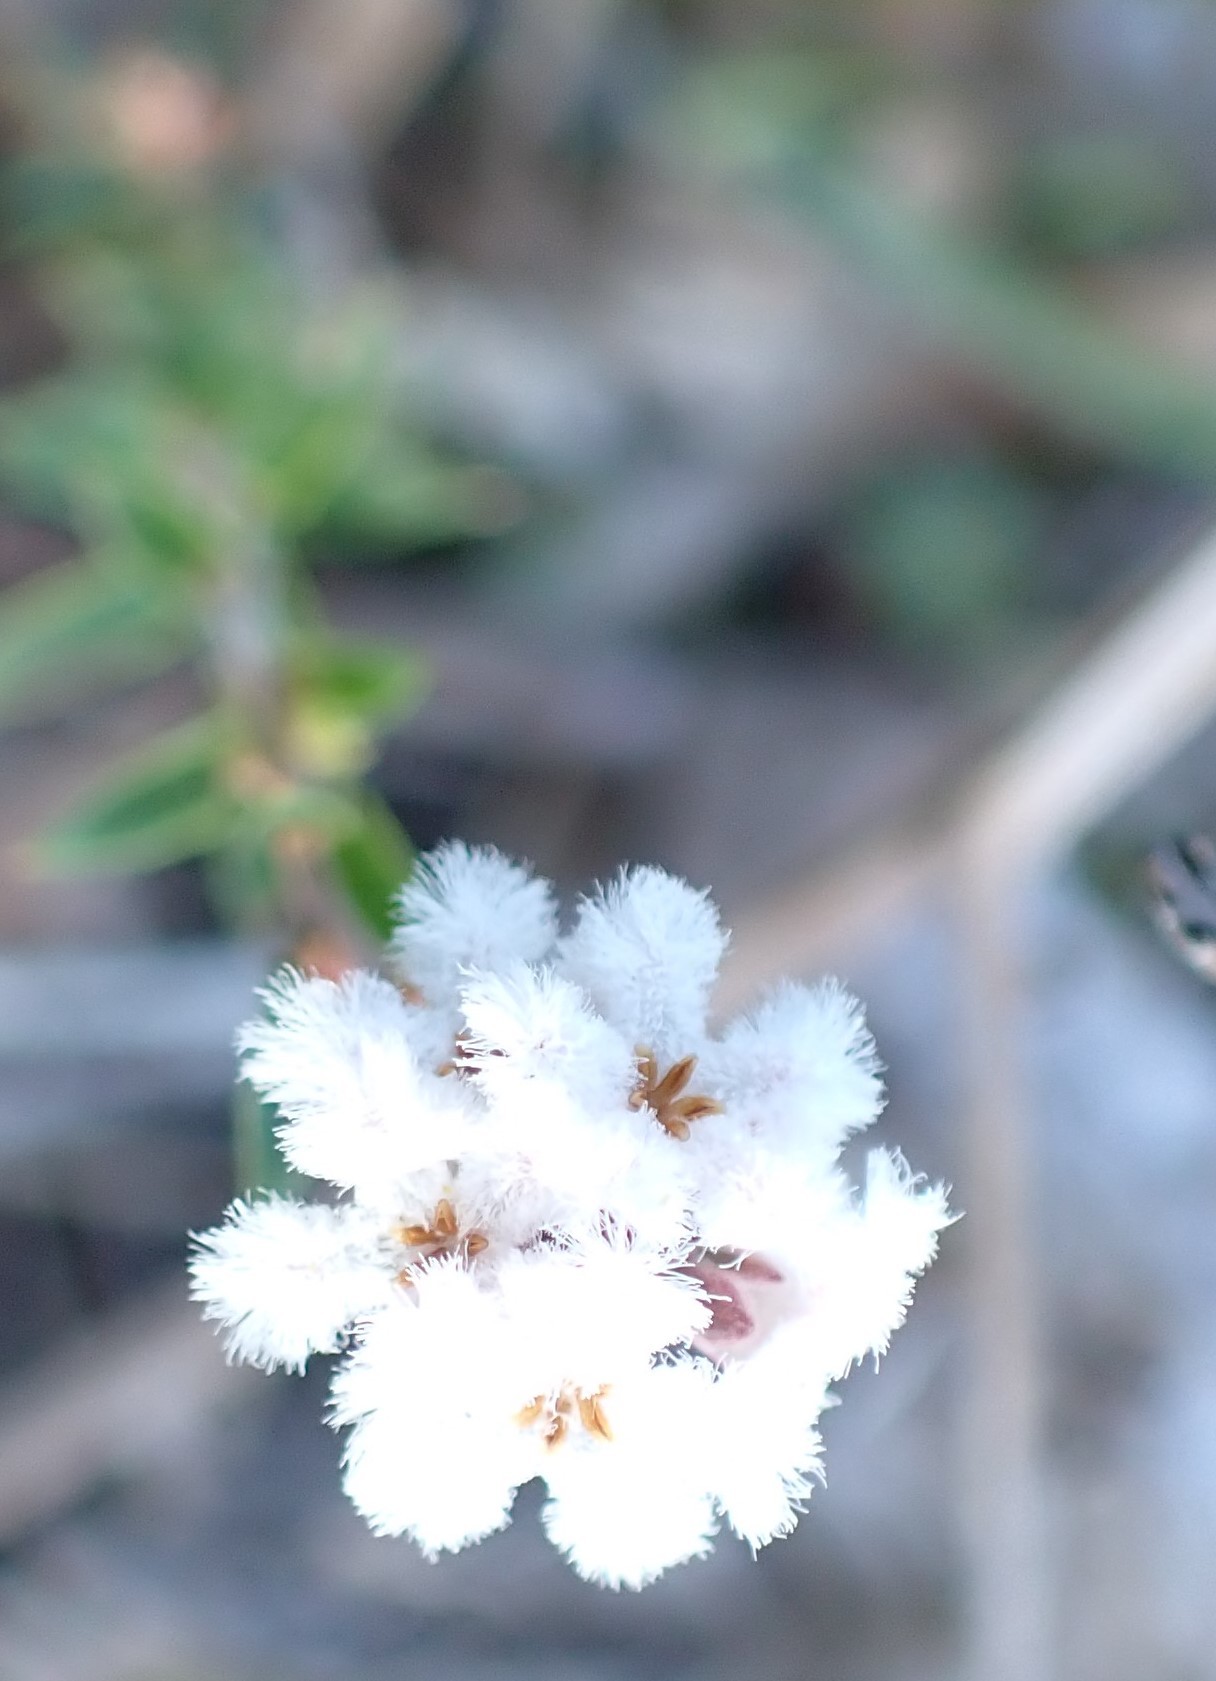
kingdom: Plantae
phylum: Tracheophyta
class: Magnoliopsida
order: Ericales
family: Ericaceae
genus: Leucopogon
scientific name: Leucopogon virgatus
